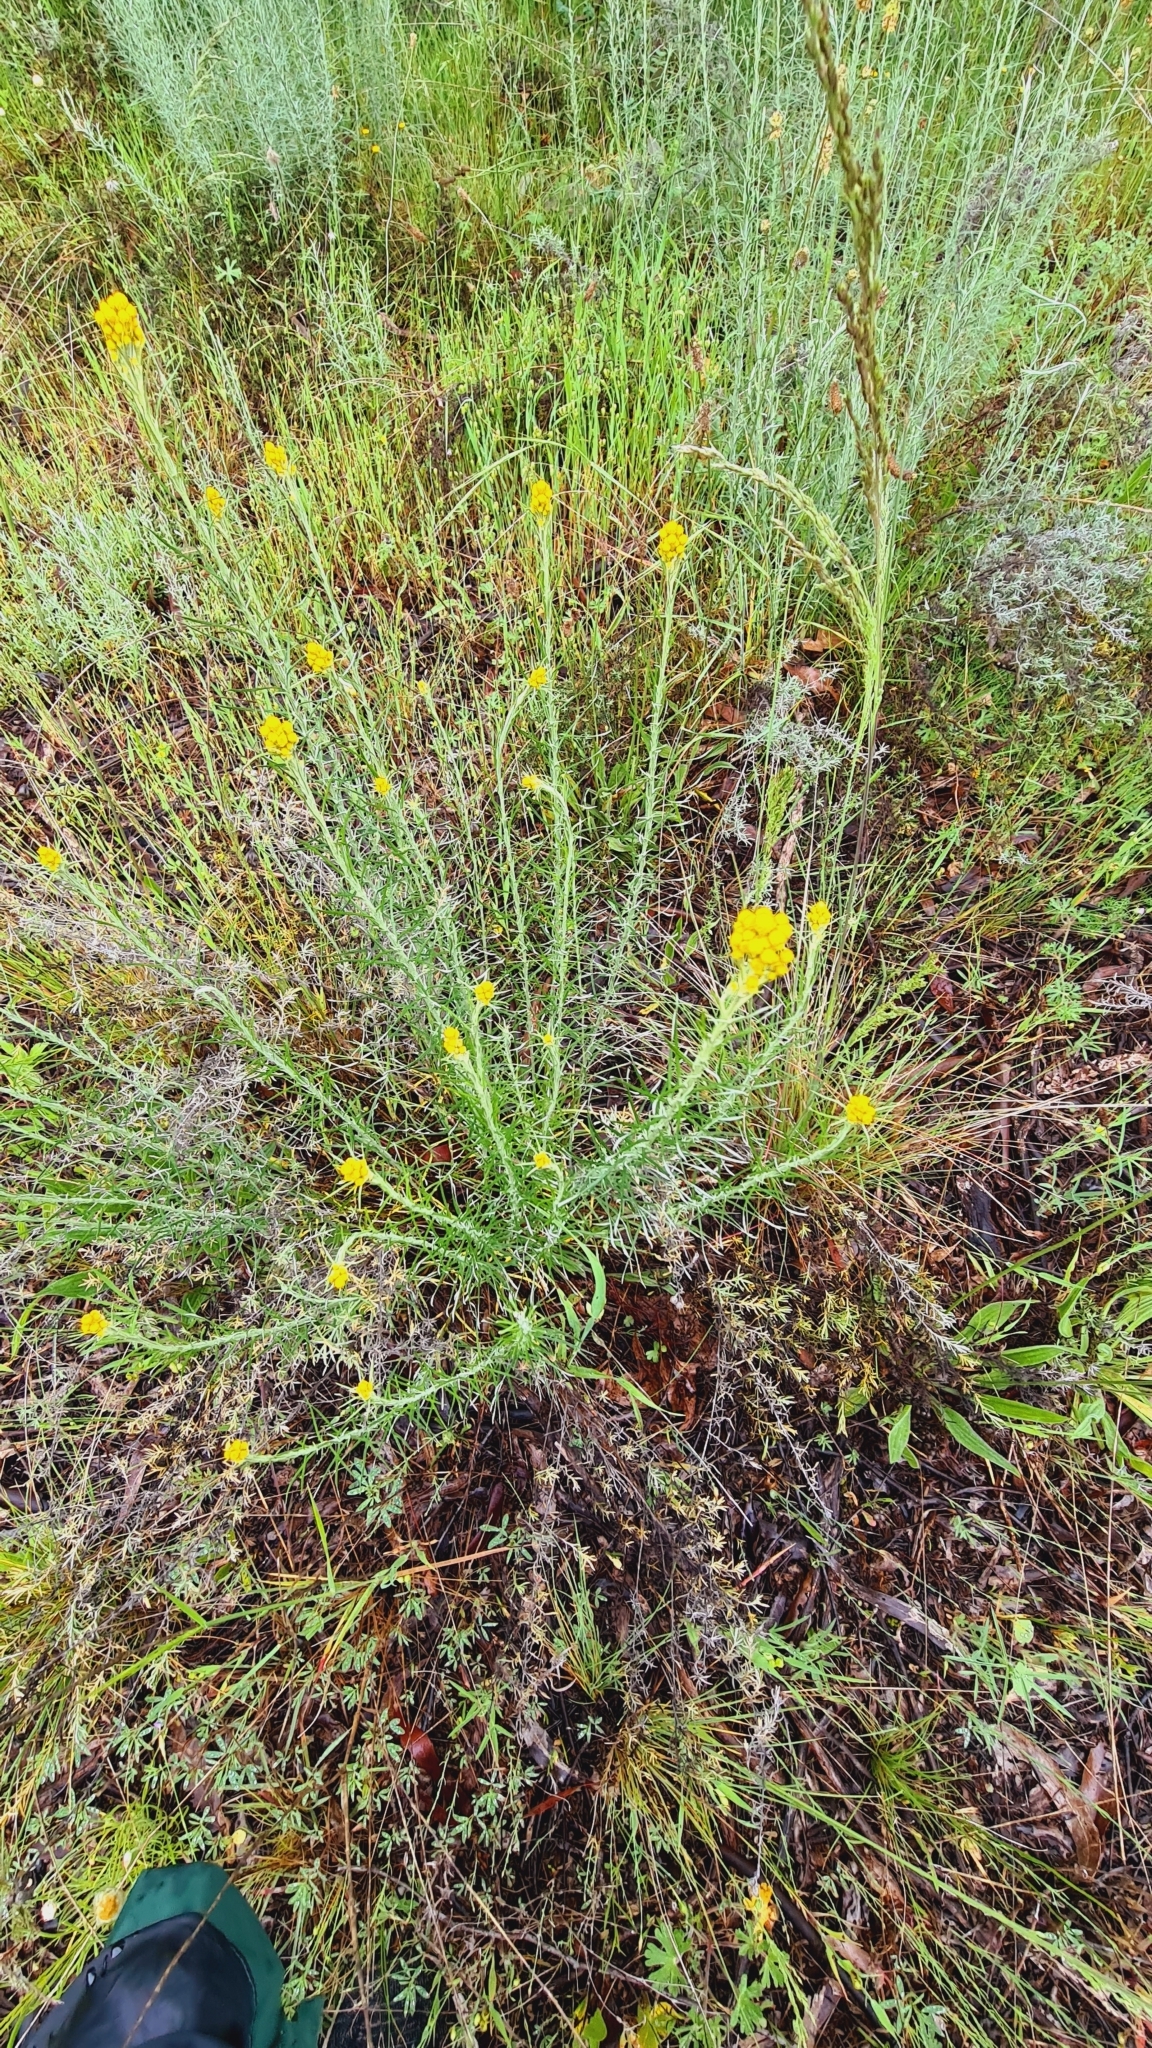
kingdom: Plantae
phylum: Tracheophyta
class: Magnoliopsida
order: Asterales
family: Asteraceae
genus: Chrysocephalum
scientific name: Chrysocephalum semipapposum
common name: Clustered everlasting
